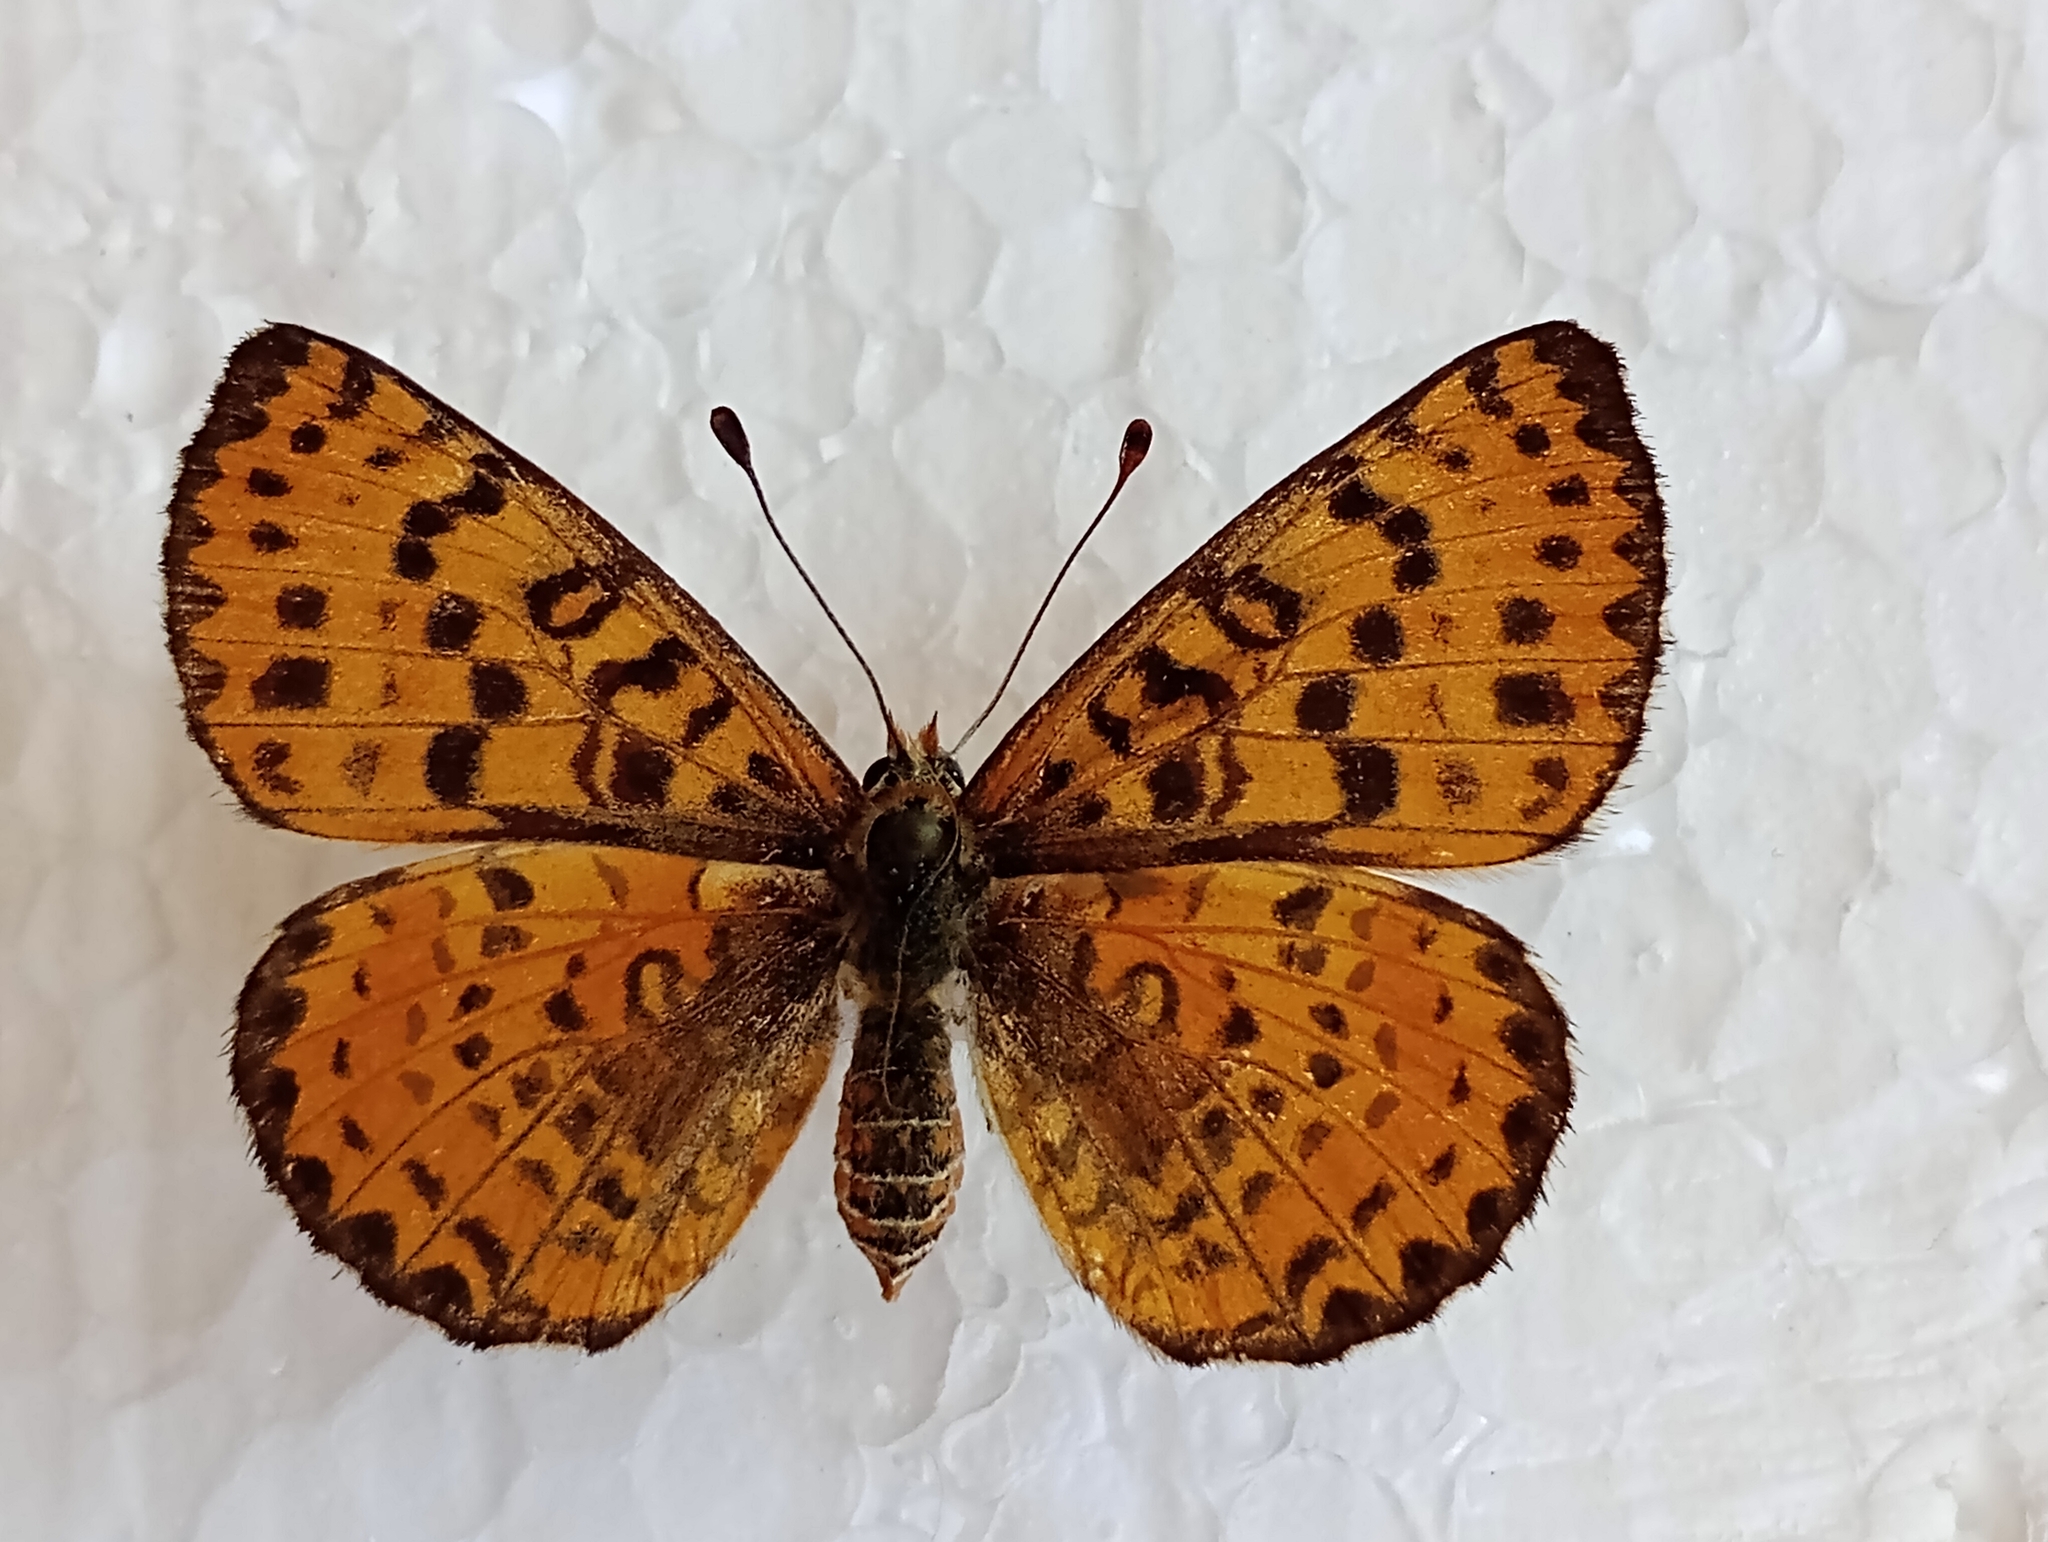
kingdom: Animalia
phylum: Arthropoda
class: Insecta
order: Lepidoptera
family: Nymphalidae
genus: Melitaea
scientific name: Melitaea didyma
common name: Spotted fritillary
